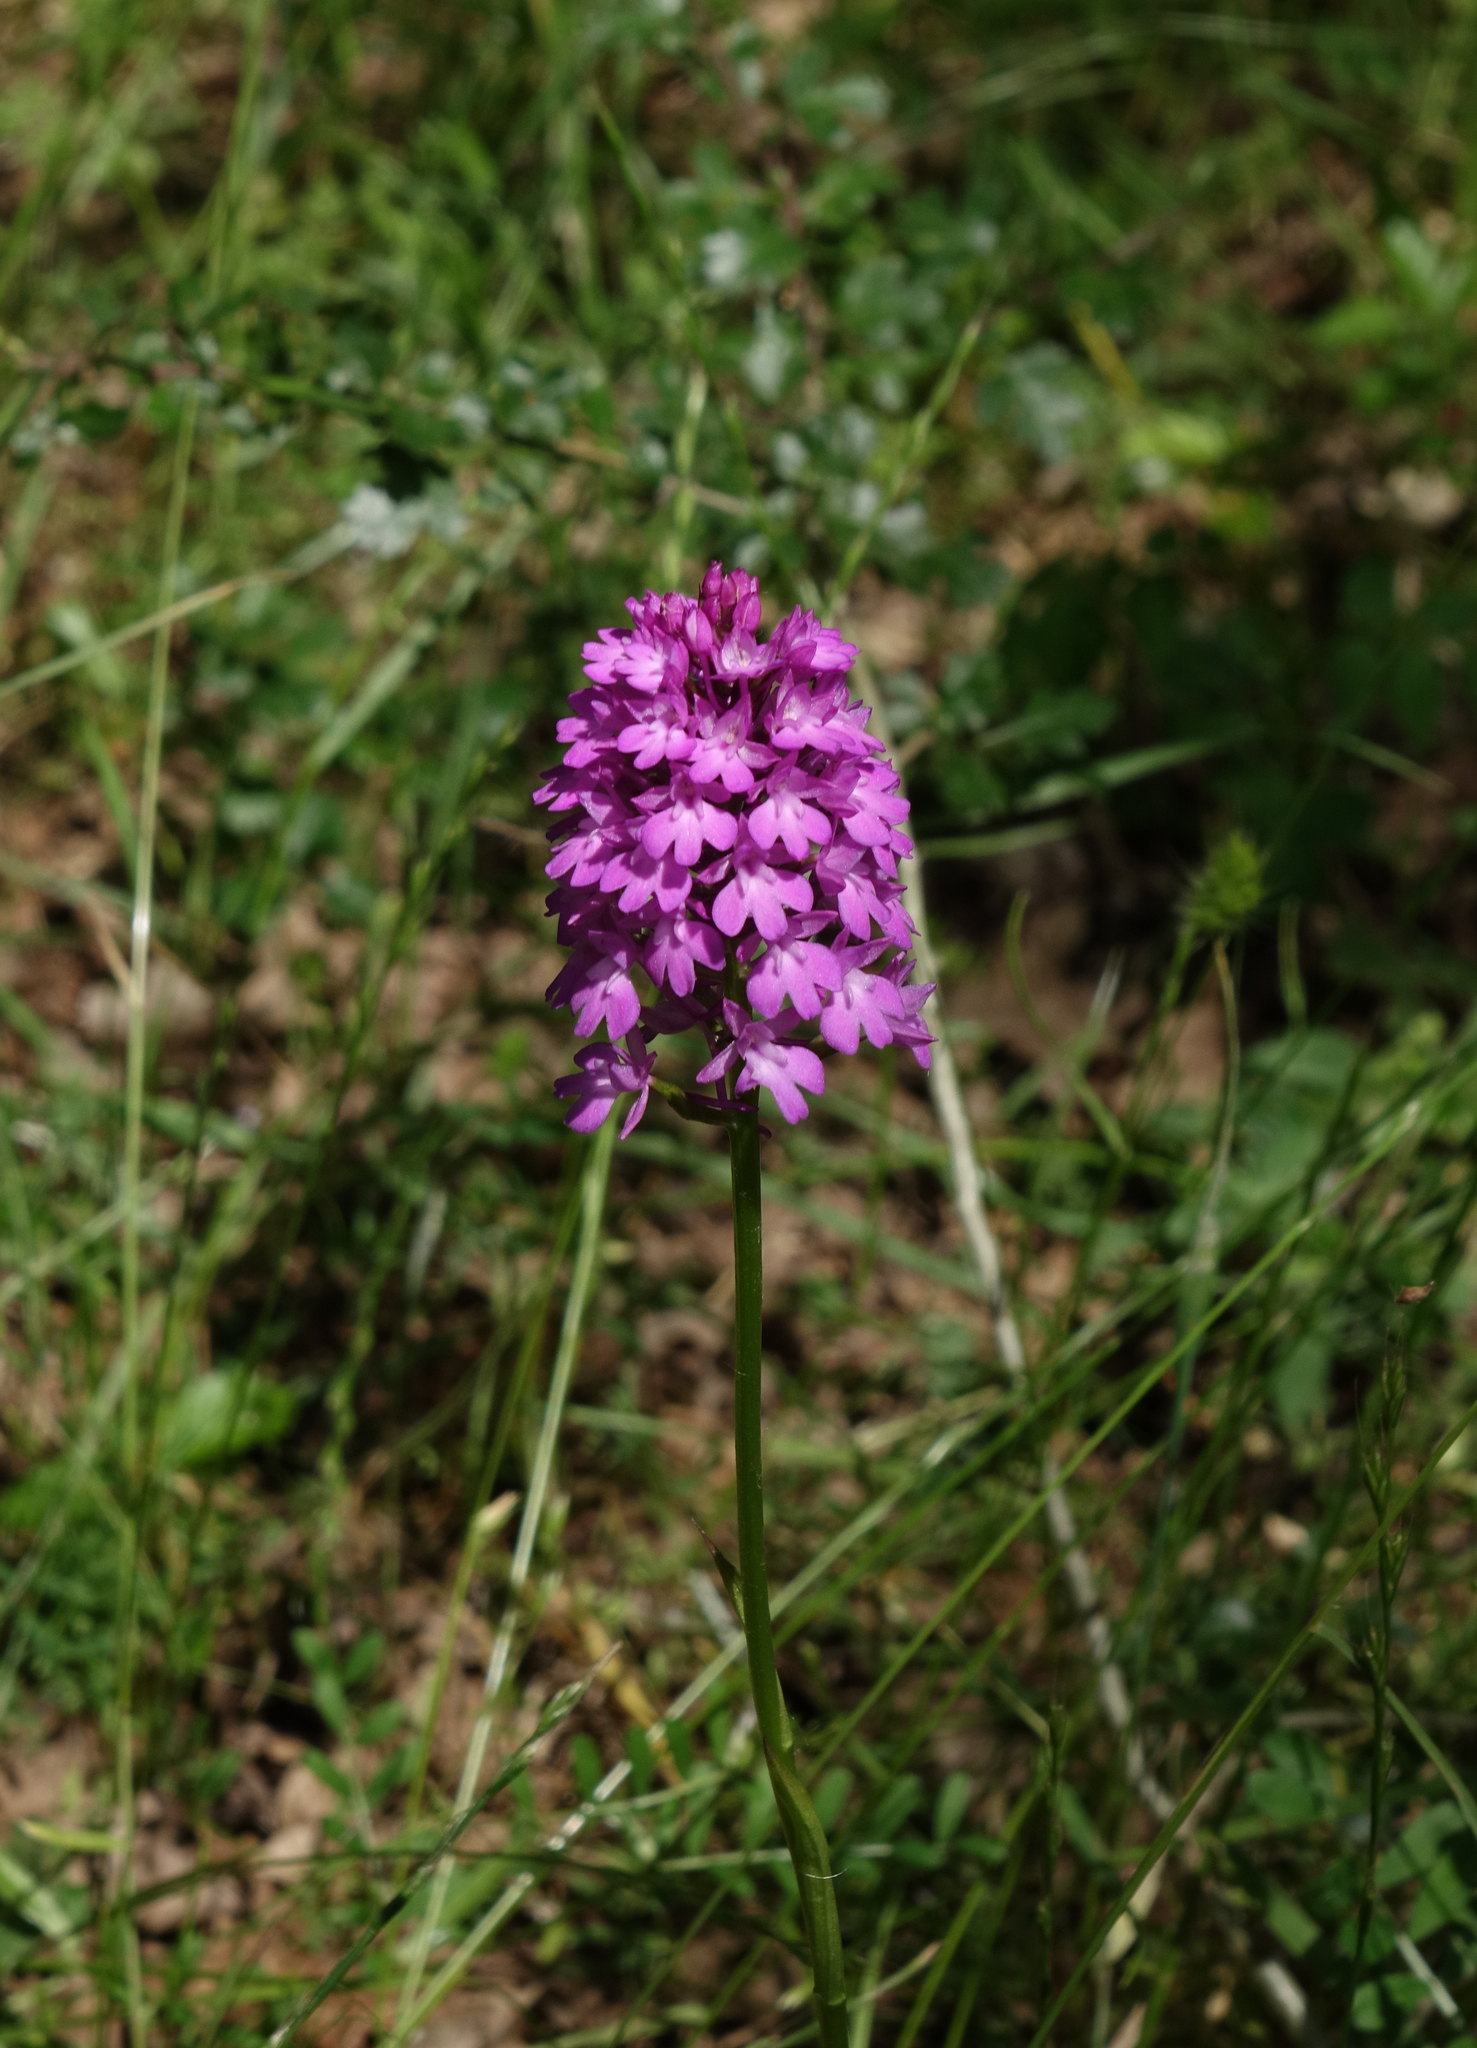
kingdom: Plantae
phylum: Tracheophyta
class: Liliopsida
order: Asparagales
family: Orchidaceae
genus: Anacamptis
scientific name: Anacamptis pyramidalis
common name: Pyramidal orchid
